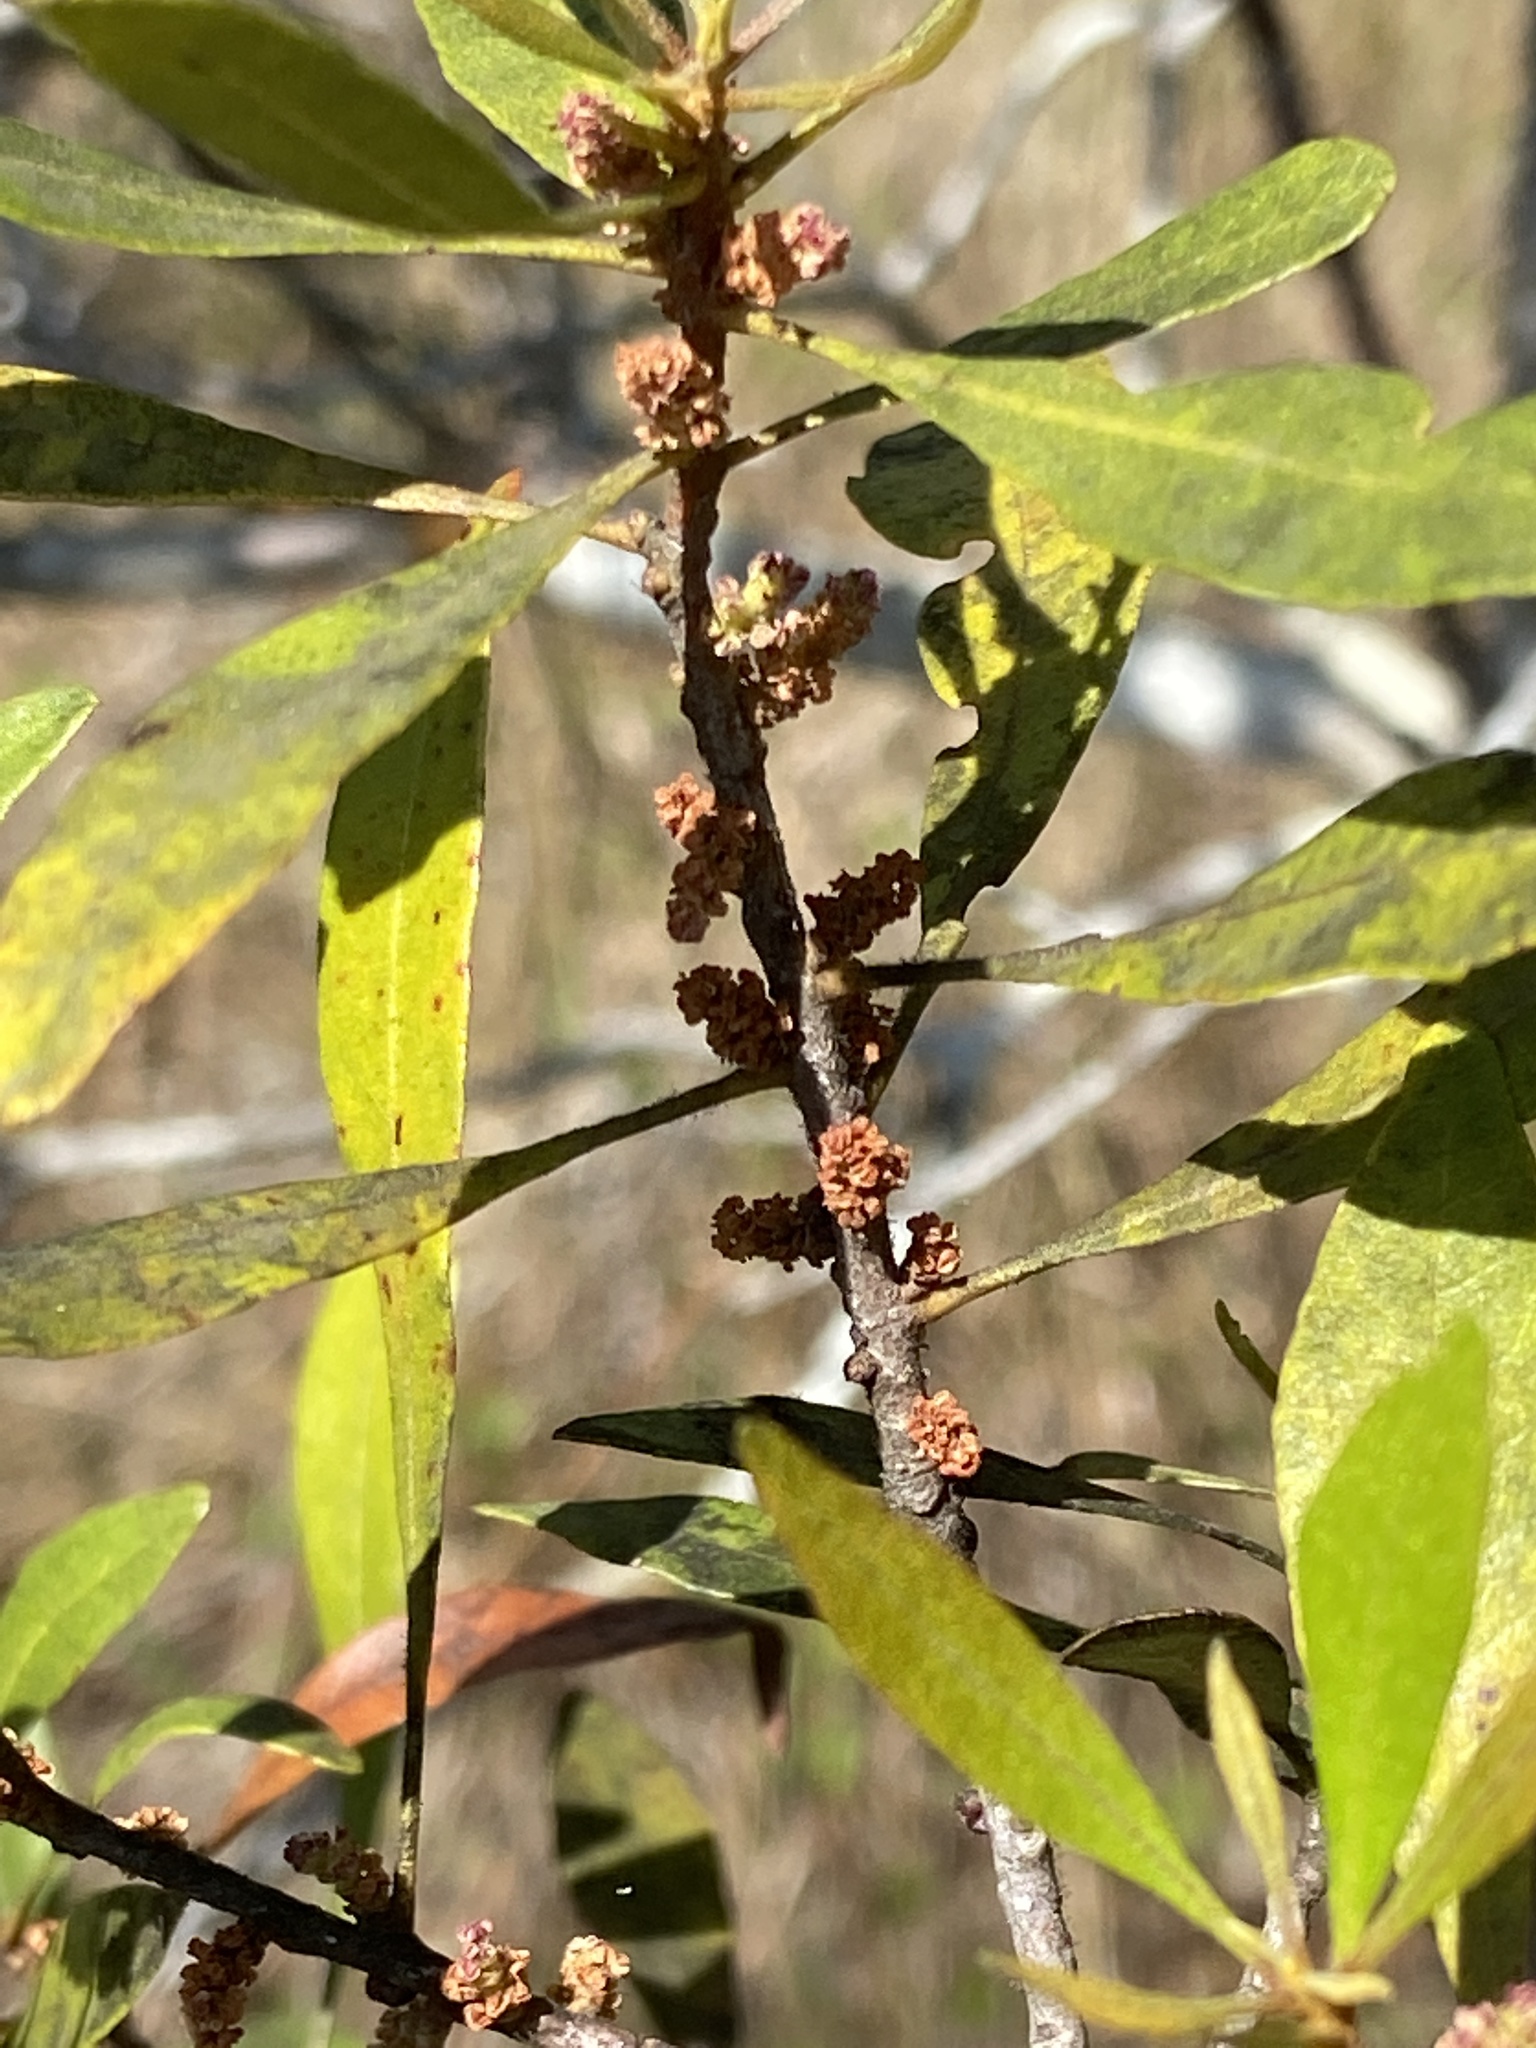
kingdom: Plantae
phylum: Tracheophyta
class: Magnoliopsida
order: Fagales
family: Myricaceae
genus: Morella
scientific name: Morella cerifera
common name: Wax myrtle
